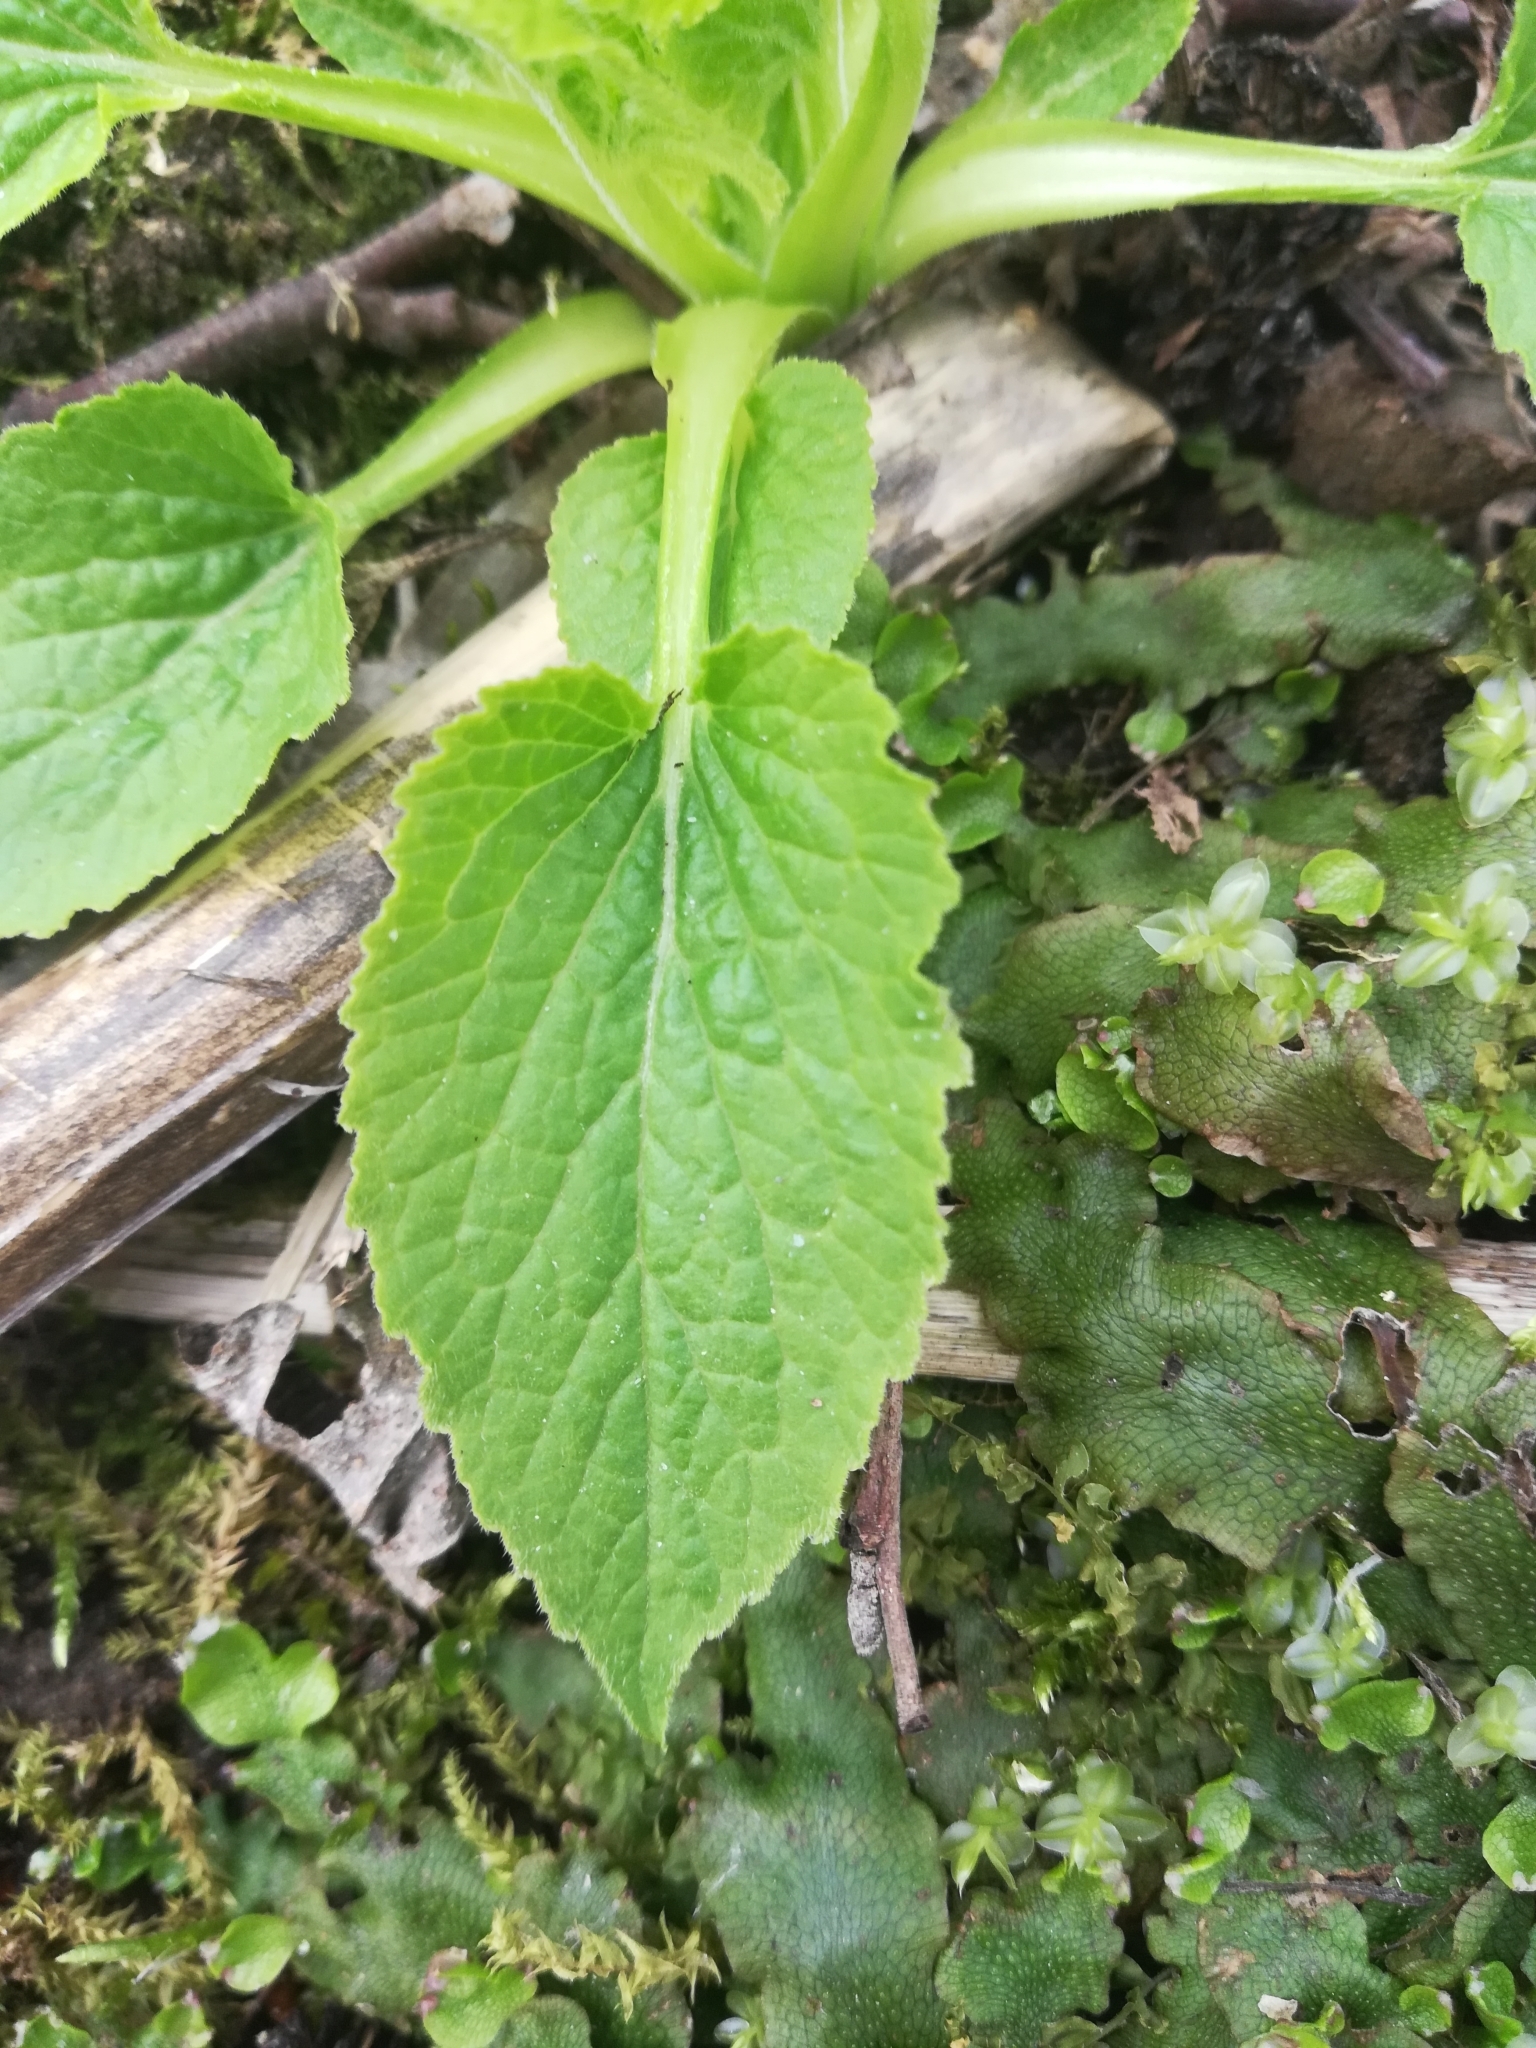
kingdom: Plantae
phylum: Tracheophyta
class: Magnoliopsida
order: Asterales
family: Campanulaceae
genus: Campanula
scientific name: Campanula latifolia
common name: Giant bellflower
